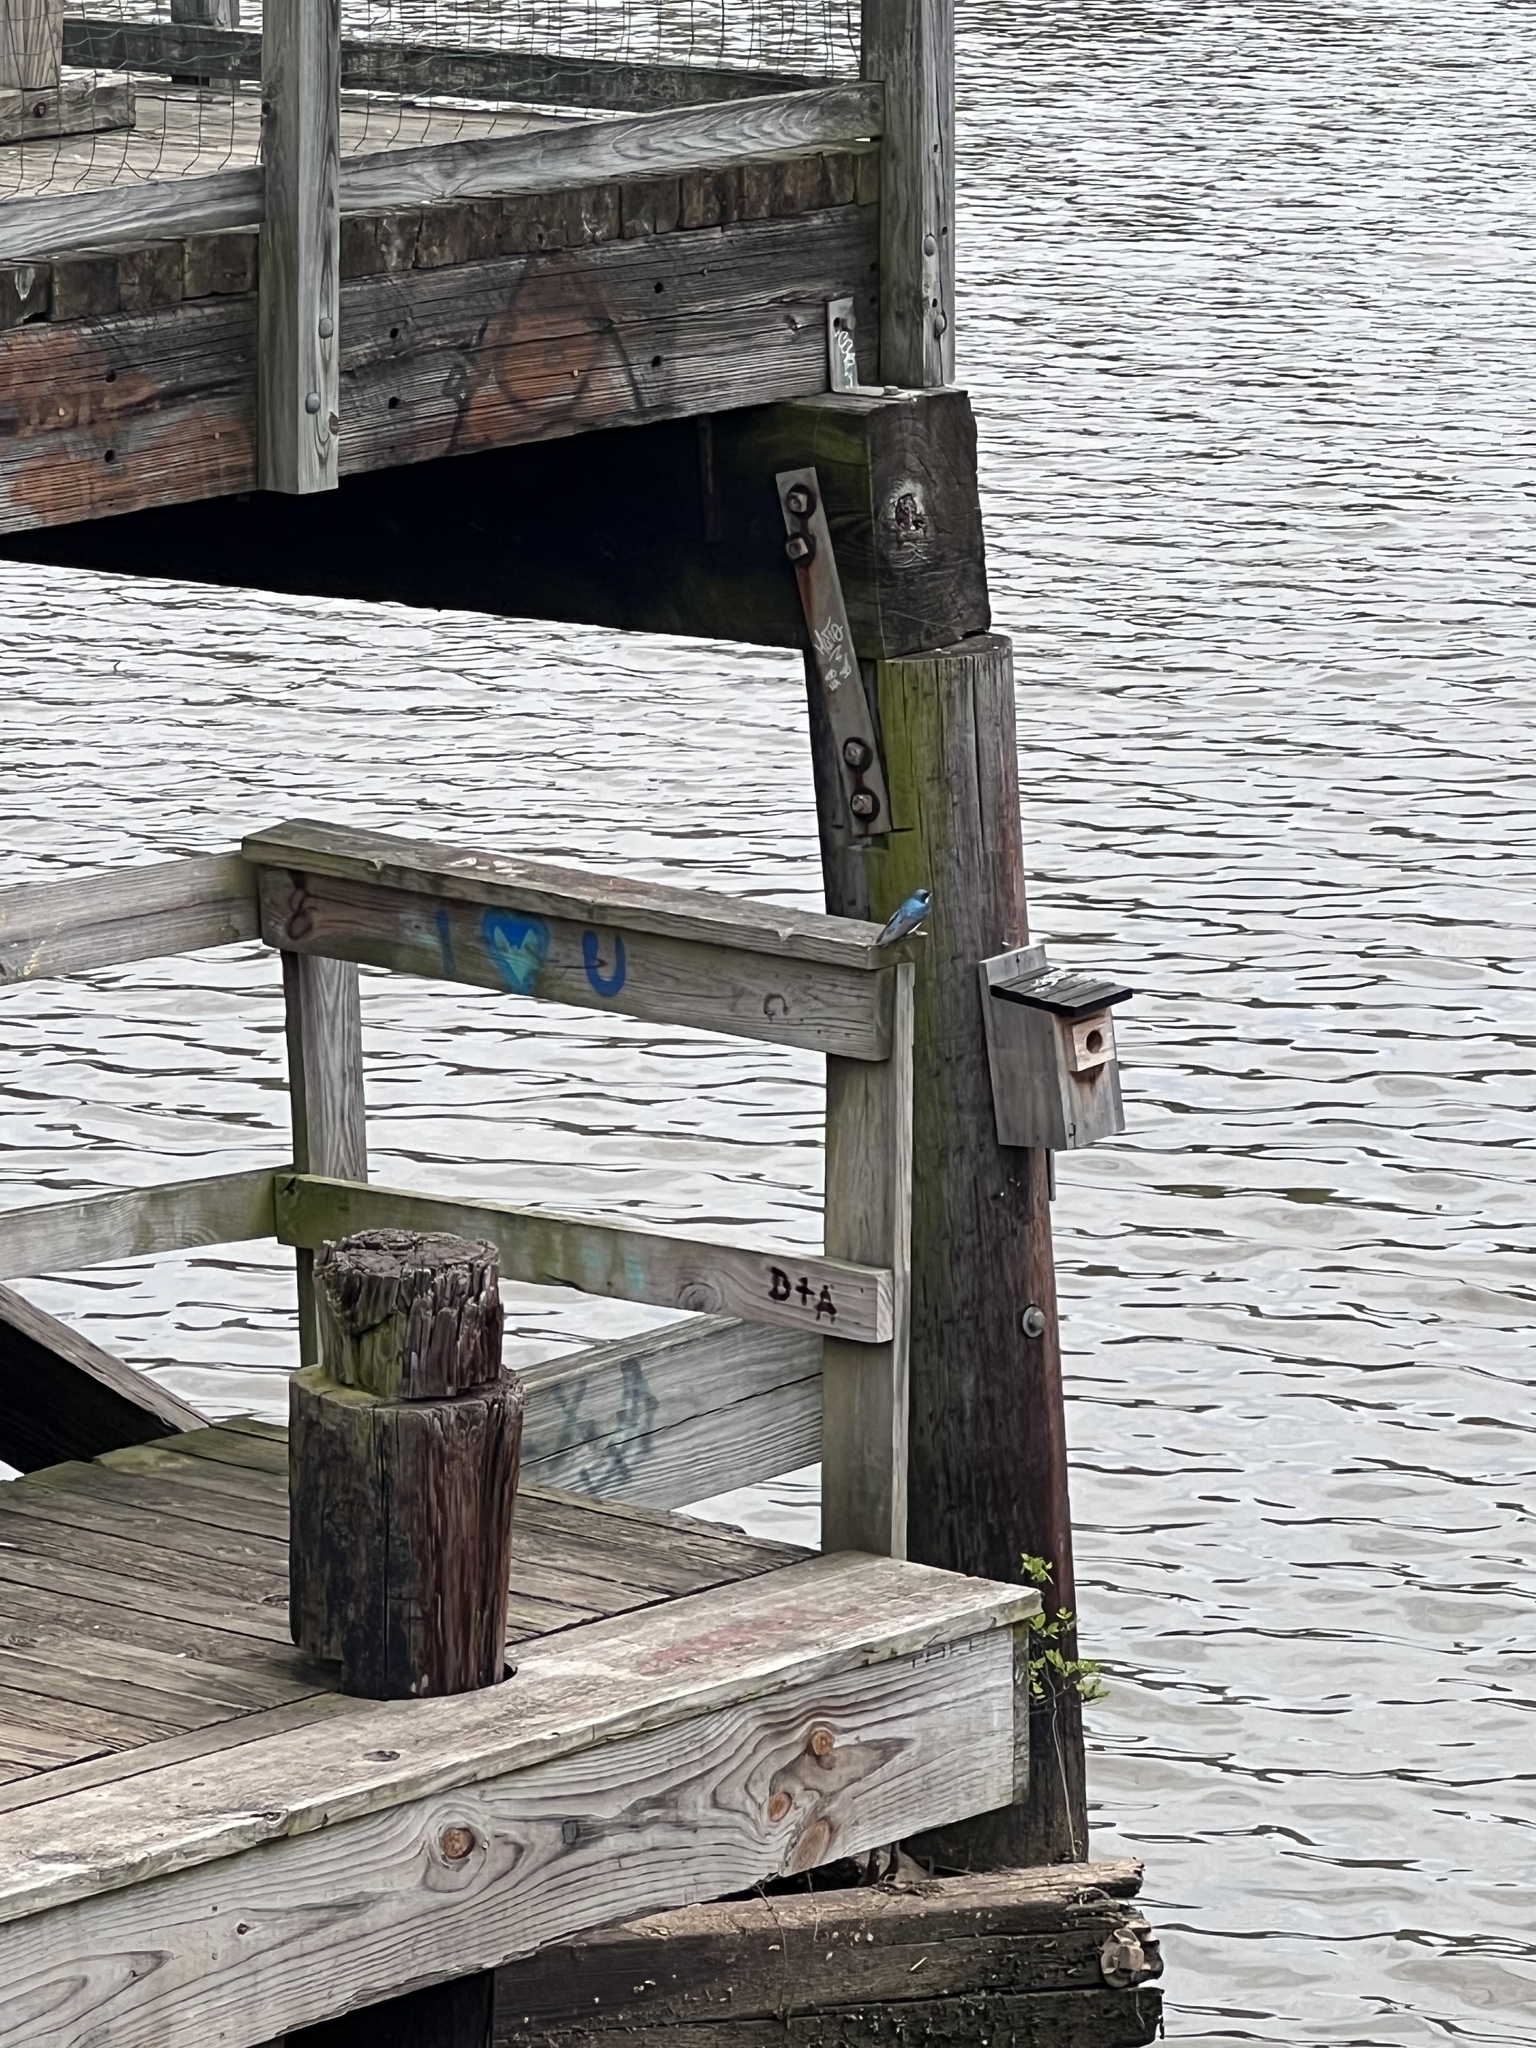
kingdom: Animalia
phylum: Chordata
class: Aves
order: Passeriformes
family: Hirundinidae
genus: Tachycineta
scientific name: Tachycineta bicolor
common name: Tree swallow
